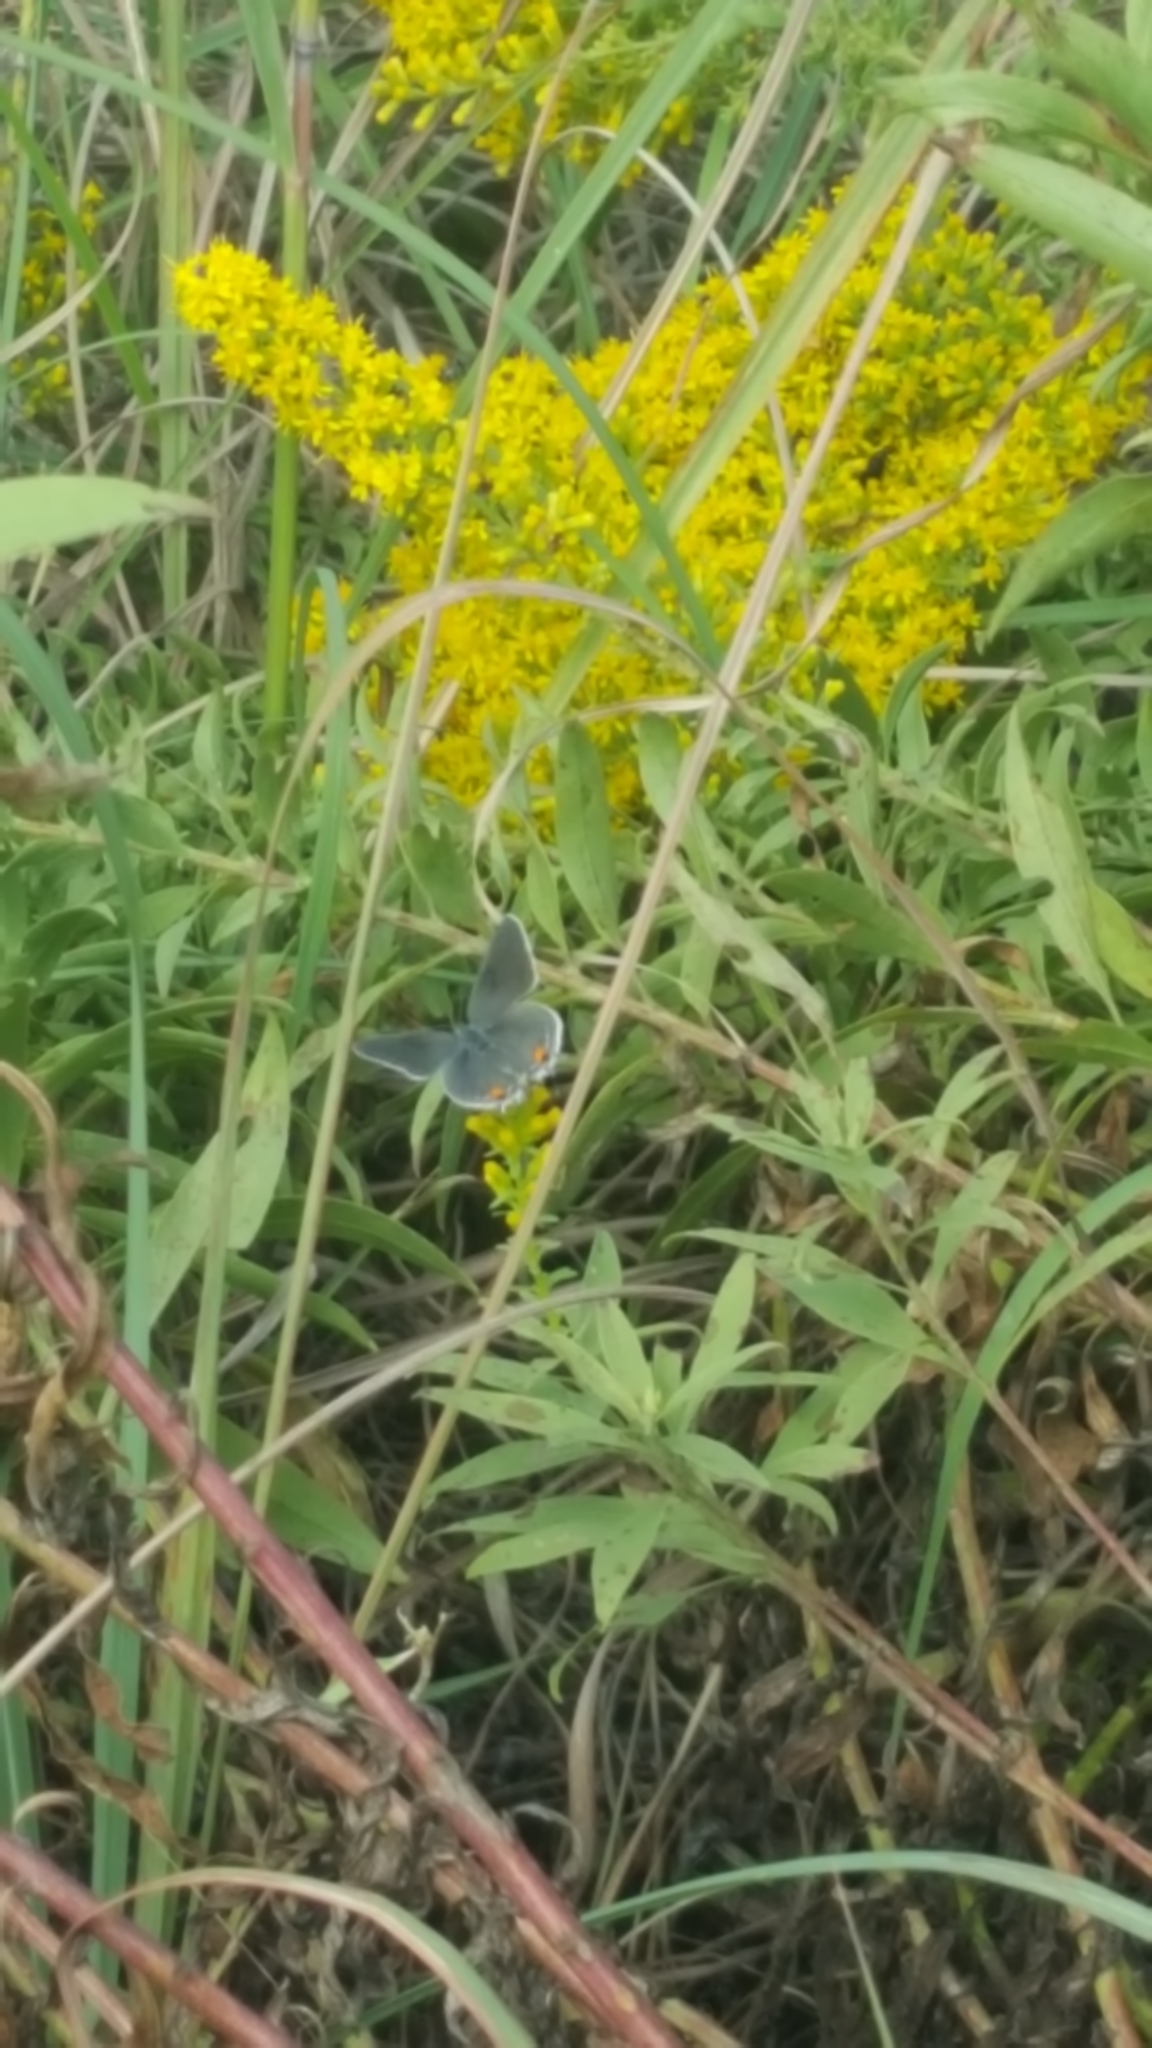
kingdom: Animalia
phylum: Arthropoda
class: Insecta
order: Lepidoptera
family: Lycaenidae
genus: Elkalyce
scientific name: Elkalyce comyntas
